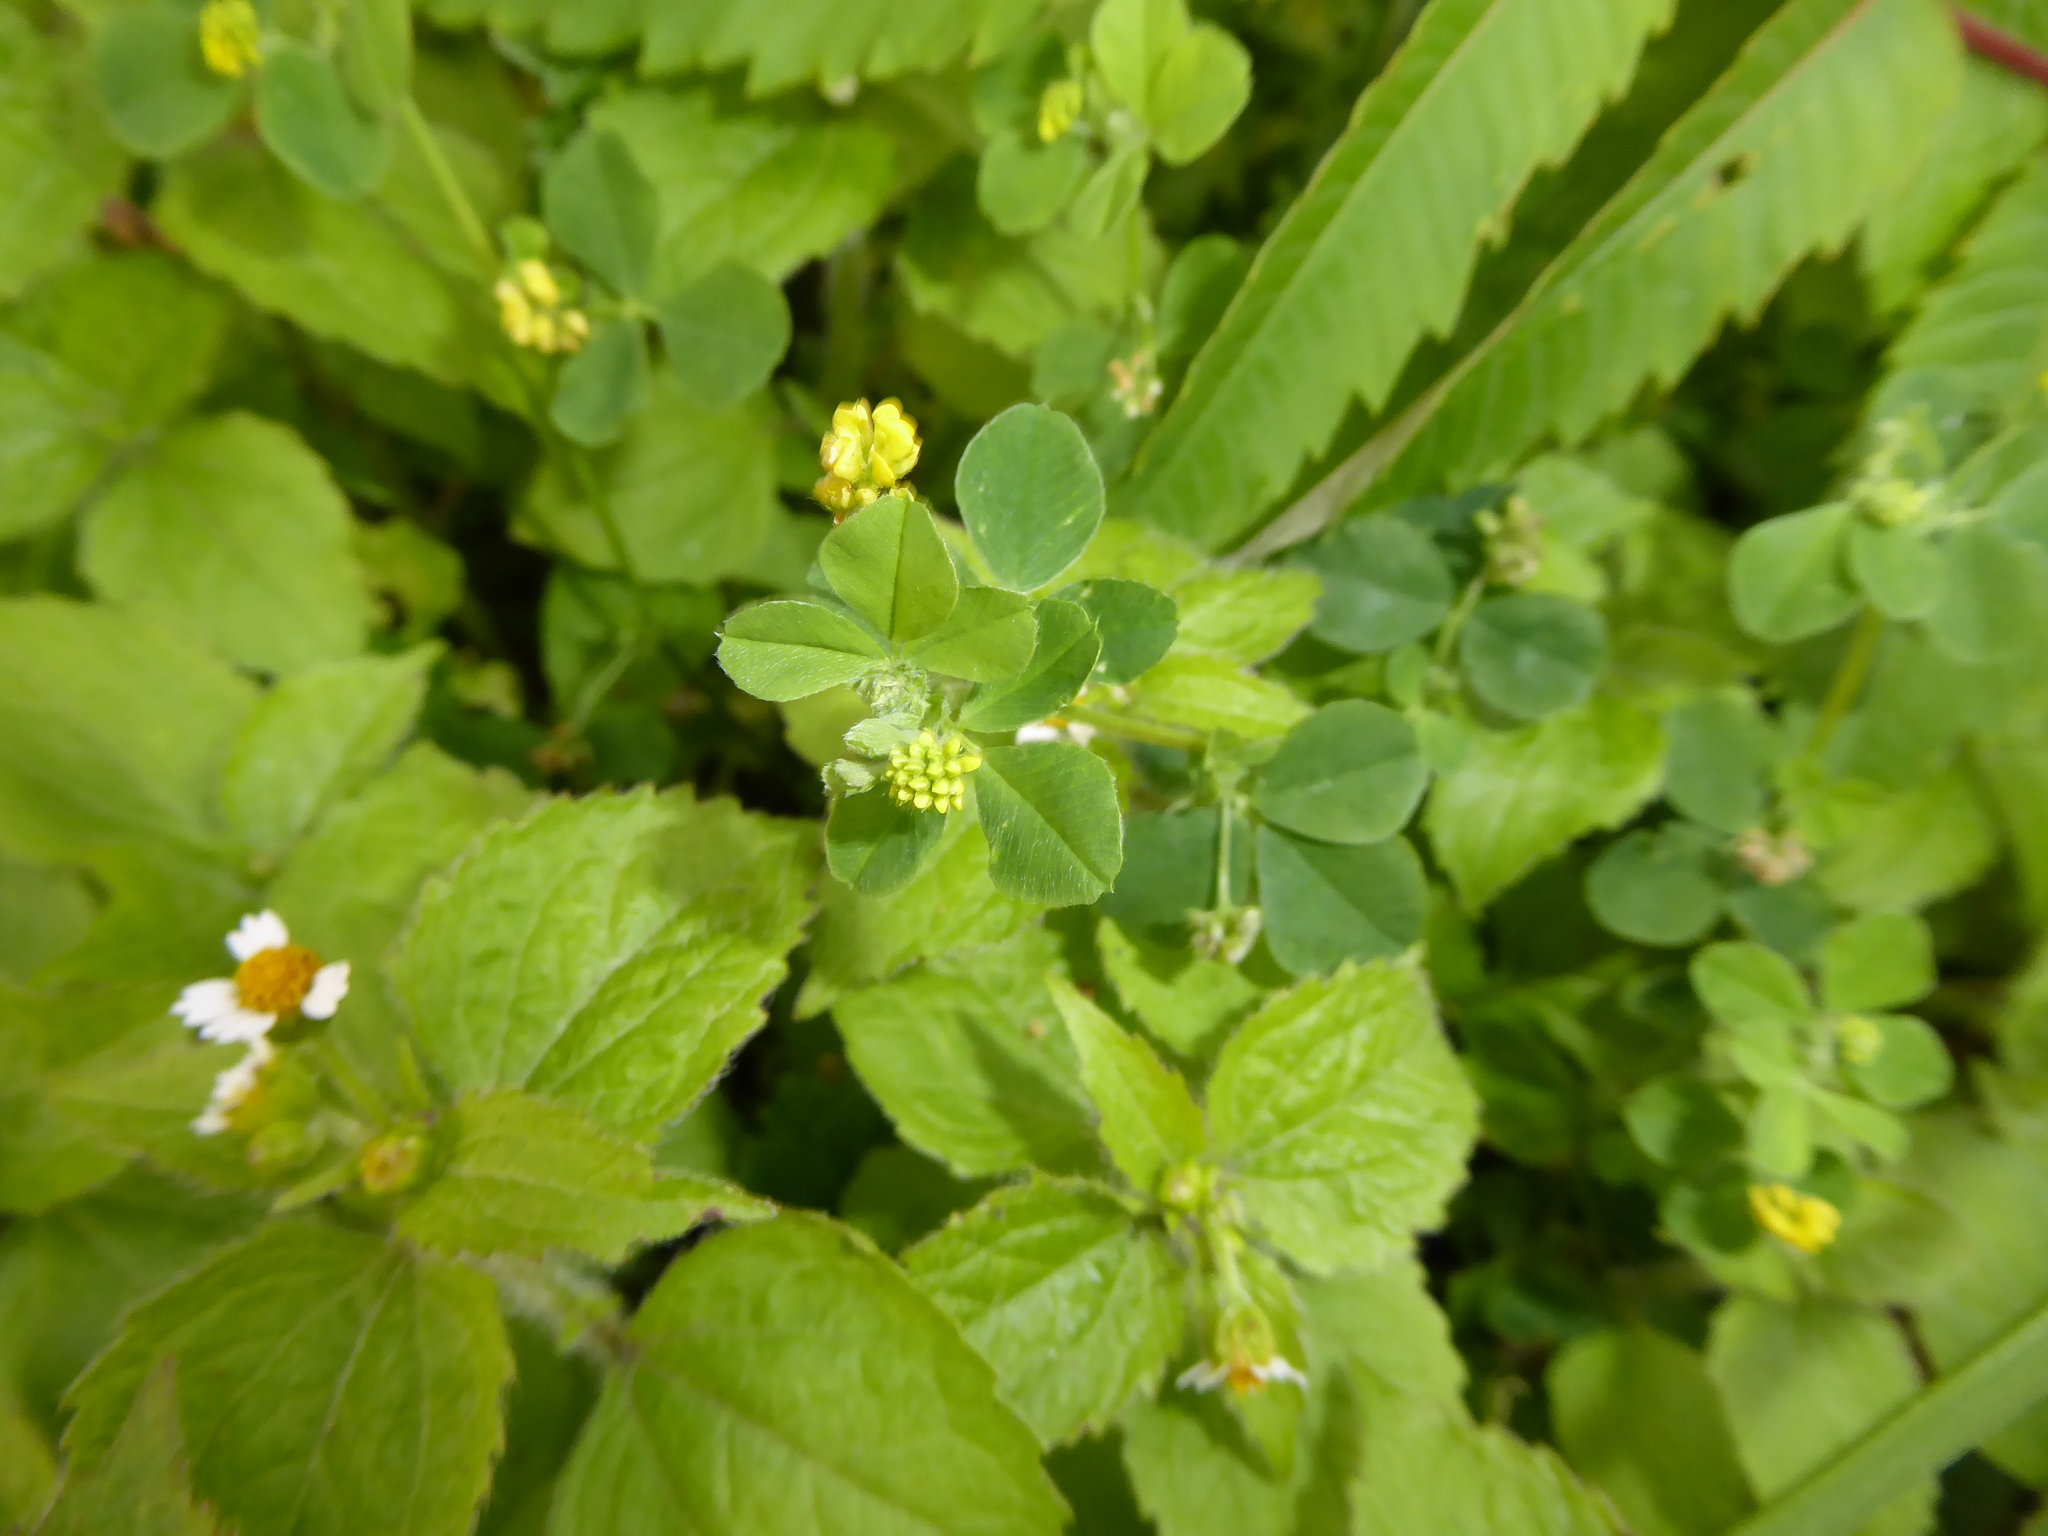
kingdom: Plantae
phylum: Tracheophyta
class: Magnoliopsida
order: Fabales
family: Fabaceae
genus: Medicago
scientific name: Medicago lupulina
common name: Black medick
